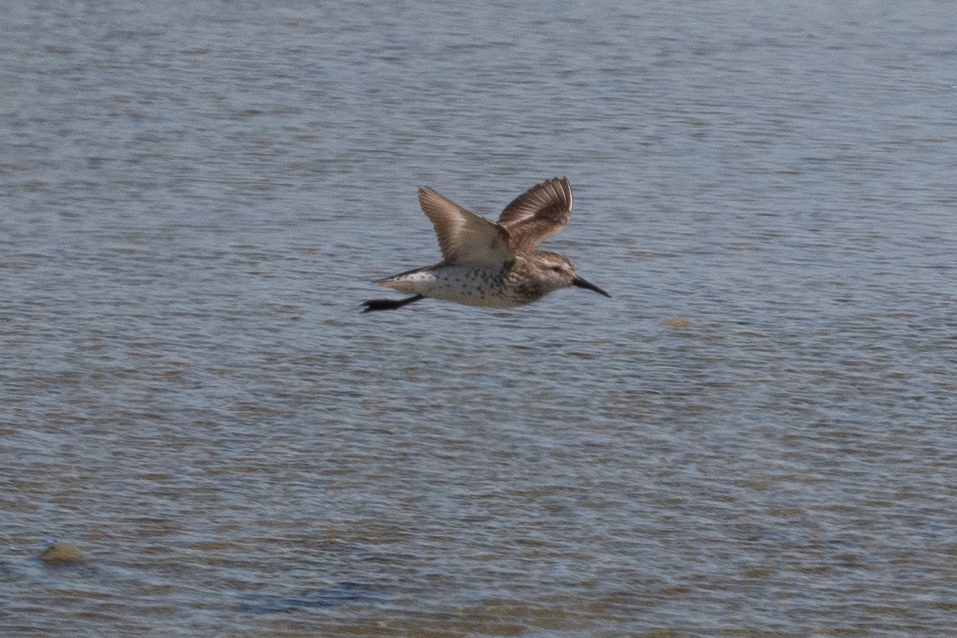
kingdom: Animalia
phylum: Chordata
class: Aves
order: Charadriiformes
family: Scolopacidae
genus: Calidris
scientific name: Calidris mauri
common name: Western sandpiper
